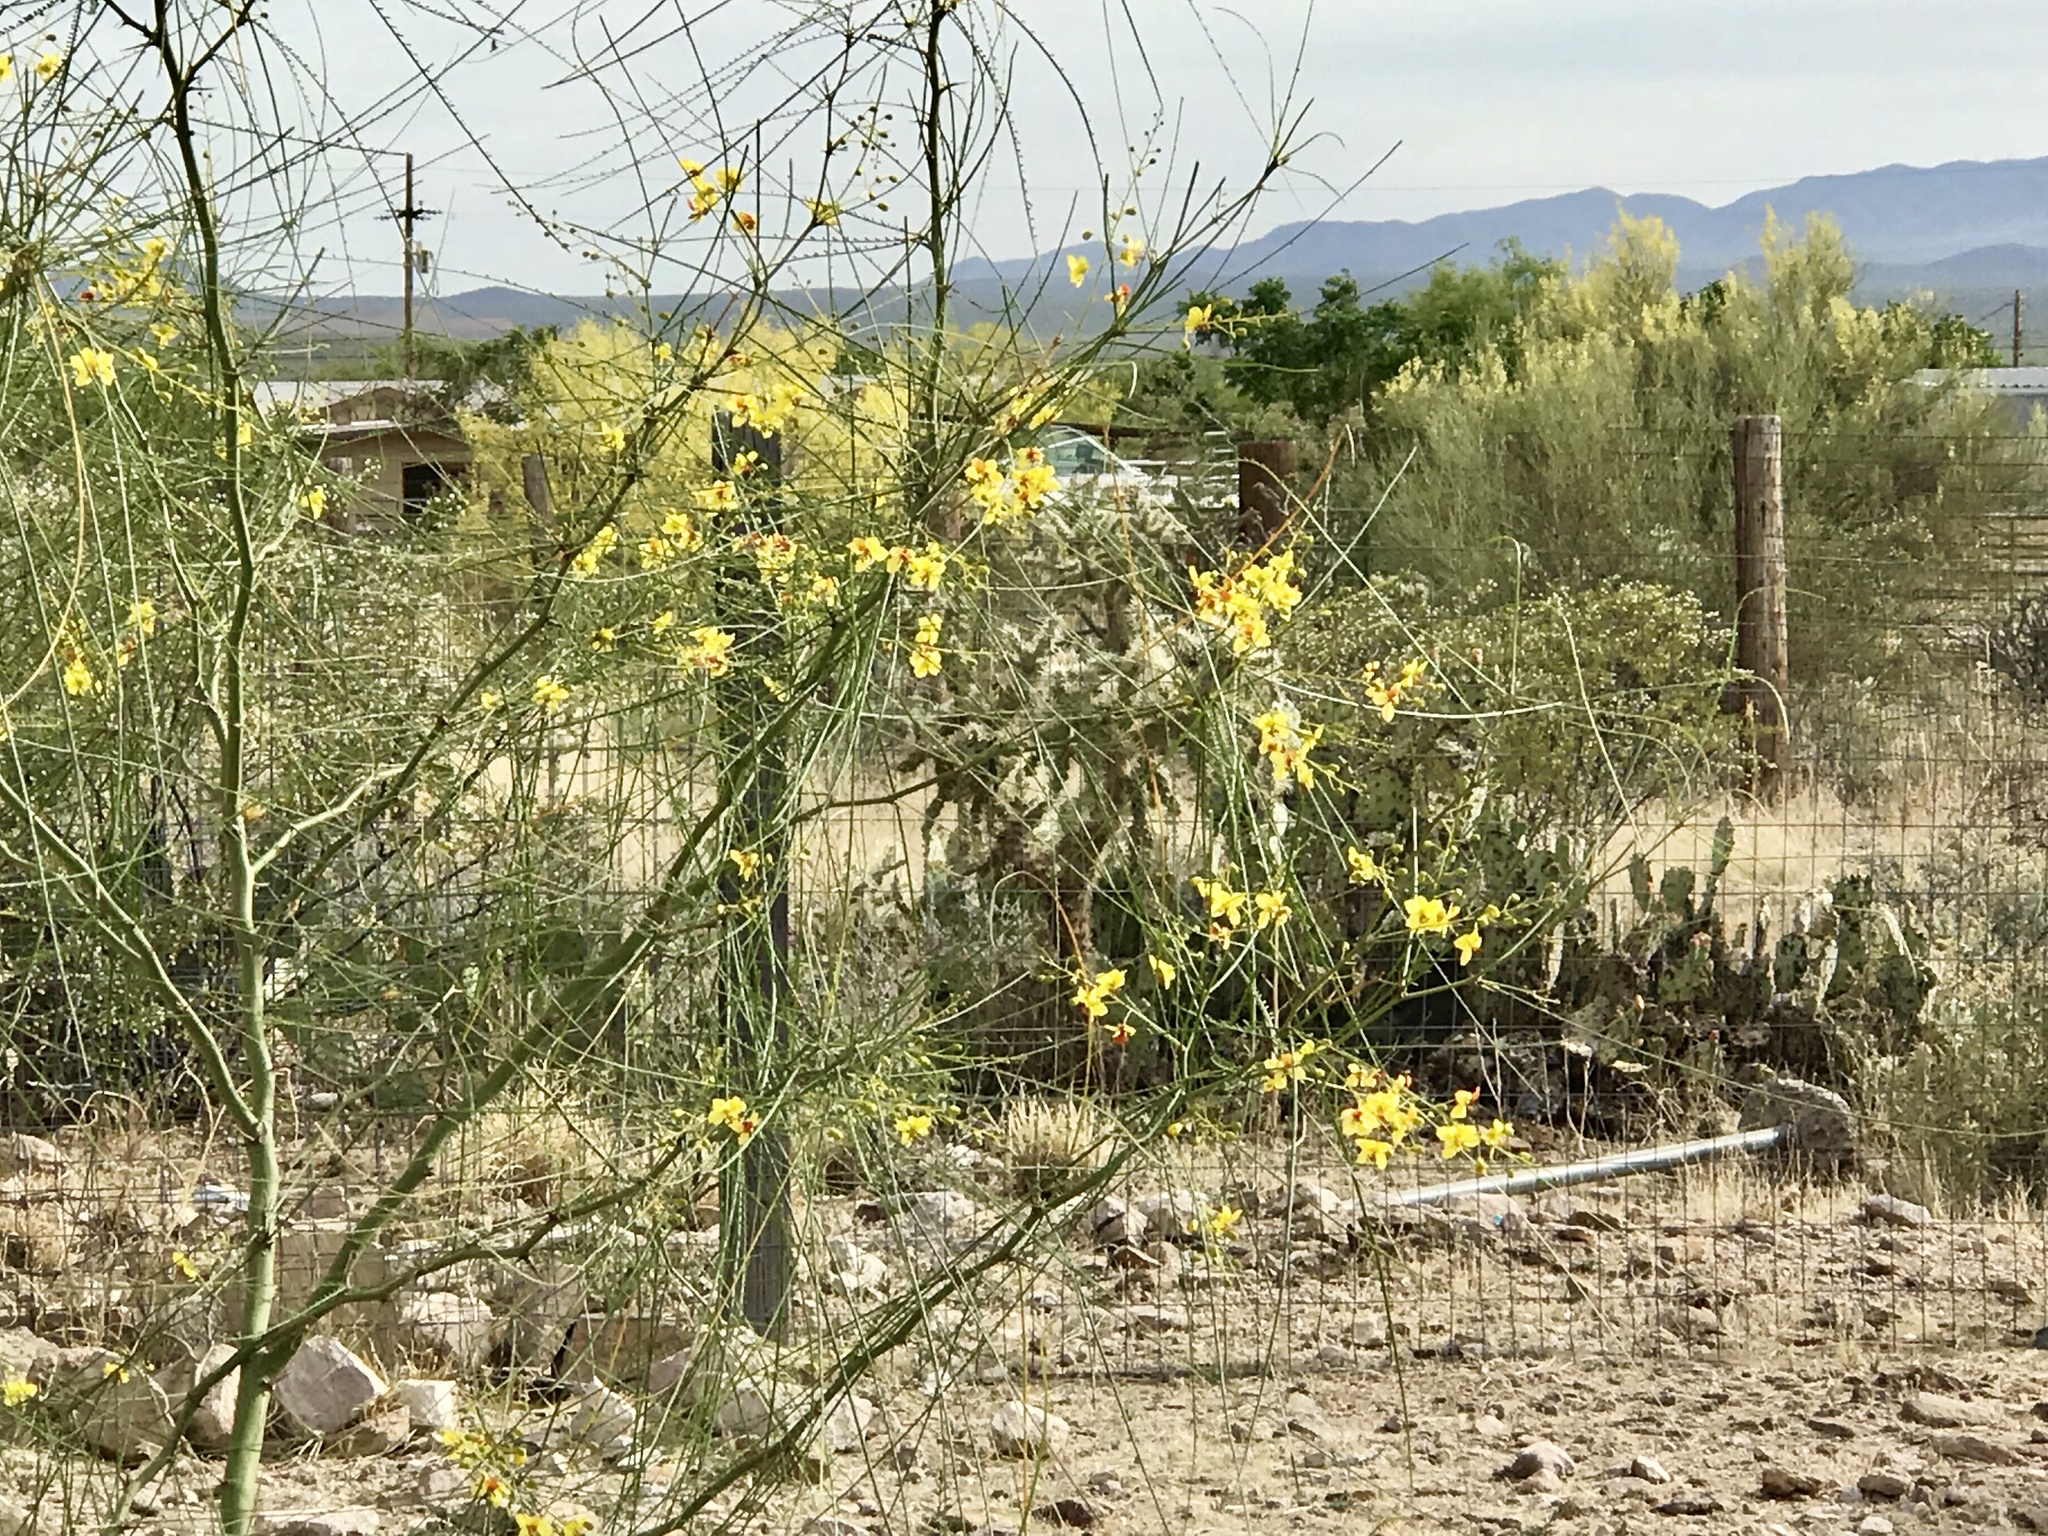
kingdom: Plantae
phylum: Tracheophyta
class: Magnoliopsida
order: Fabales
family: Fabaceae
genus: Parkinsonia
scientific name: Parkinsonia aculeata
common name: Jerusalem thorn
